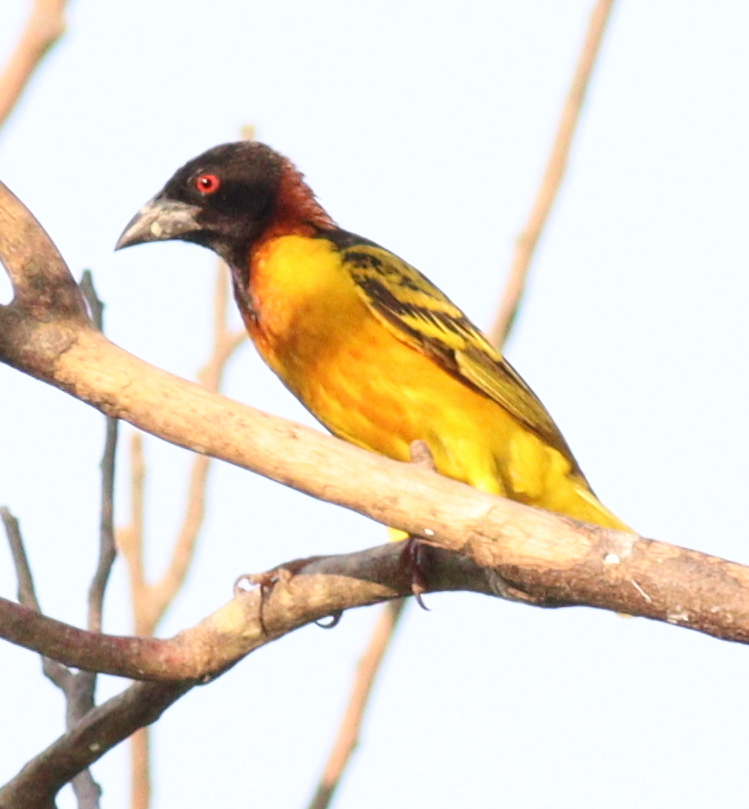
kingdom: Animalia
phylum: Chordata
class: Aves
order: Passeriformes
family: Ploceidae
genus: Ploceus
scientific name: Ploceus cucullatus
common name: Village weaver
